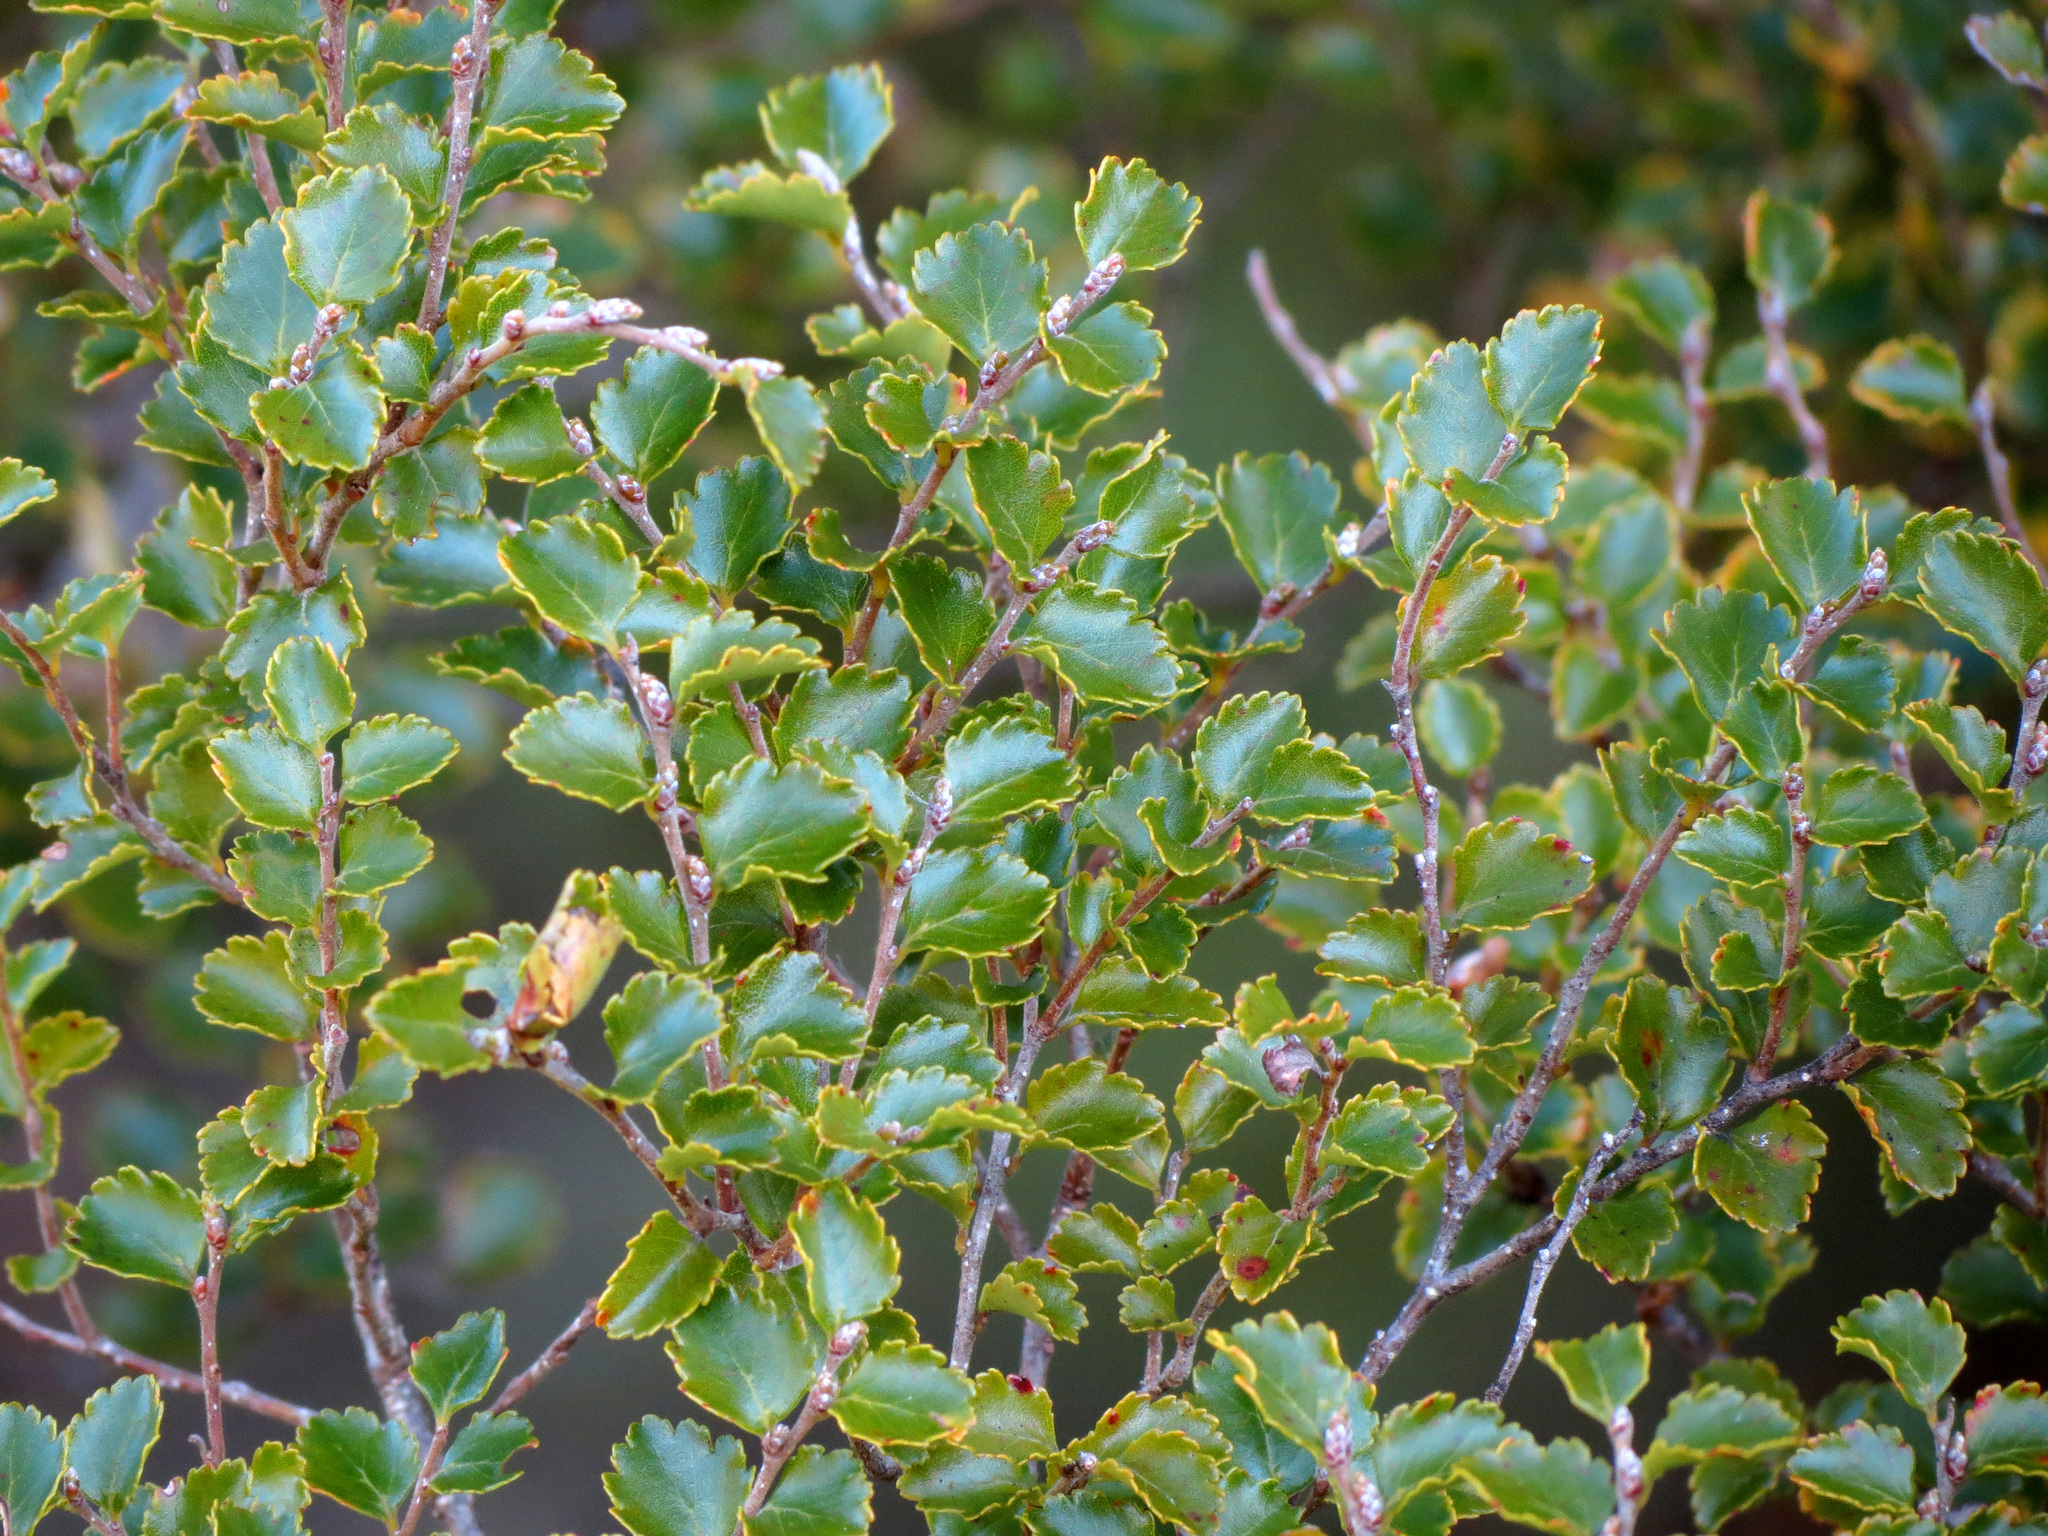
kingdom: Plantae
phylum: Tracheophyta
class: Magnoliopsida
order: Fagales
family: Nothofagaceae
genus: Nothofagus
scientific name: Nothofagus menziesii
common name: Silver beech
